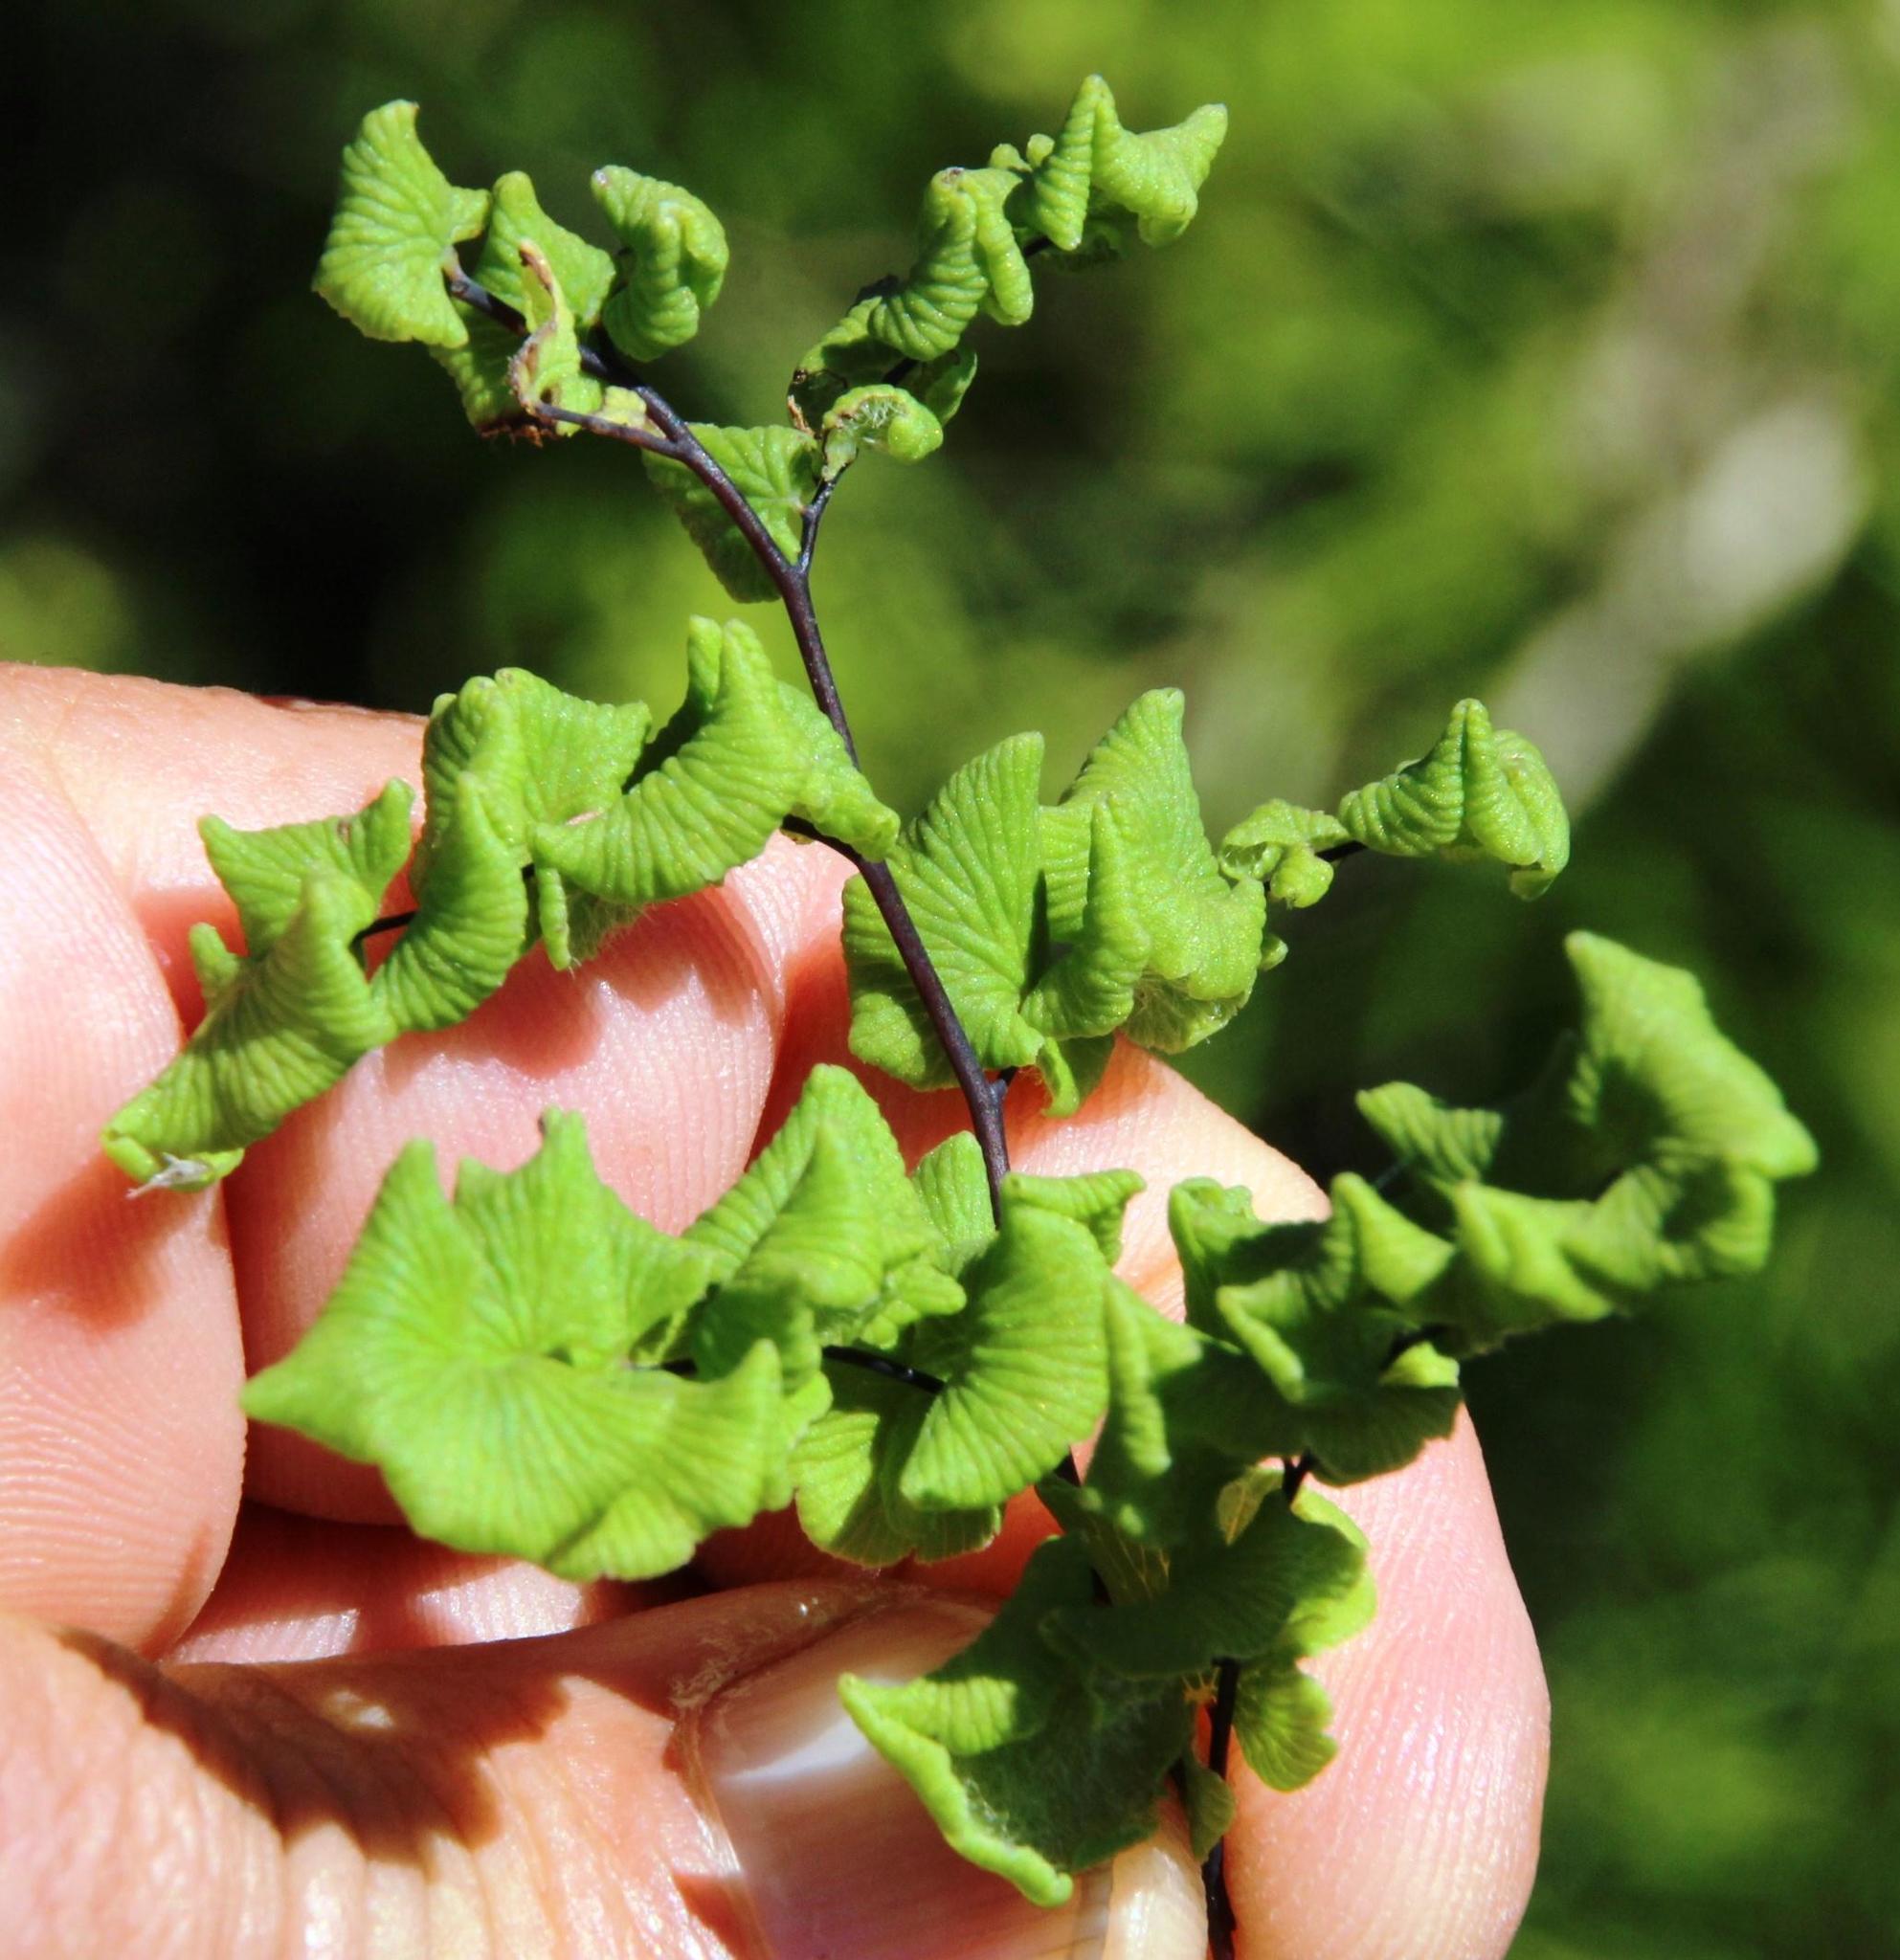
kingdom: Plantae
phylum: Tracheophyta
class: Polypodiopsida
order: Polypodiales
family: Pteridaceae
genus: Adiantum
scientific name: Adiantum chilense
